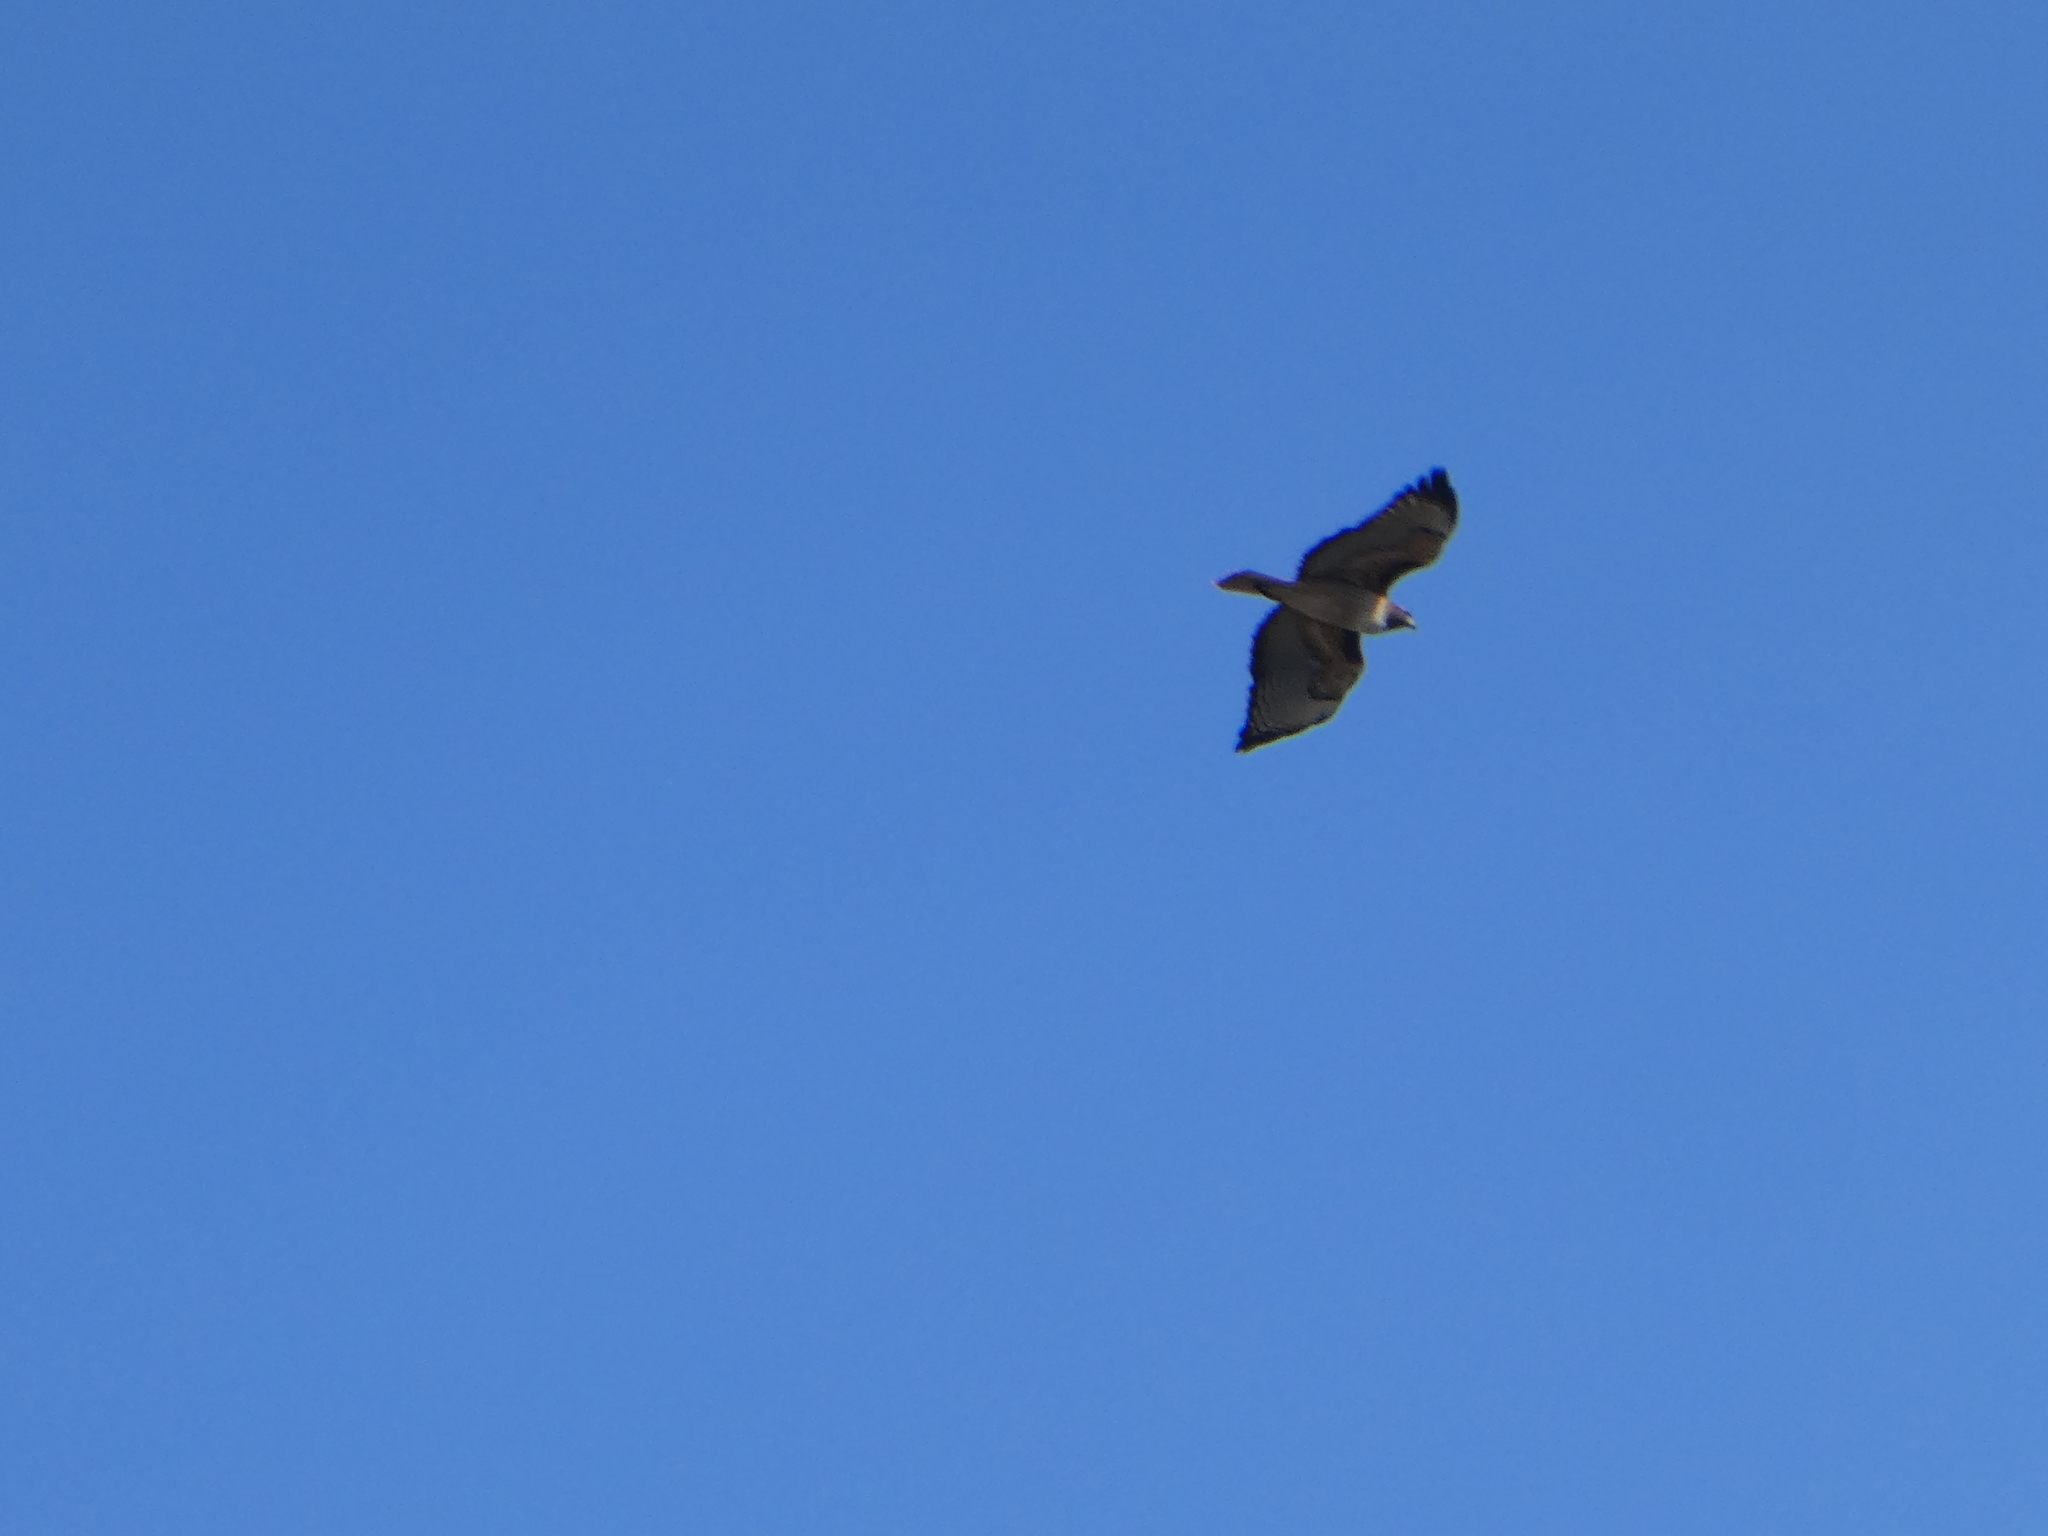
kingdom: Animalia
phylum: Chordata
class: Aves
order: Accipitriformes
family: Accipitridae
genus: Buteo
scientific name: Buteo jamaicensis
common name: Red-tailed hawk
